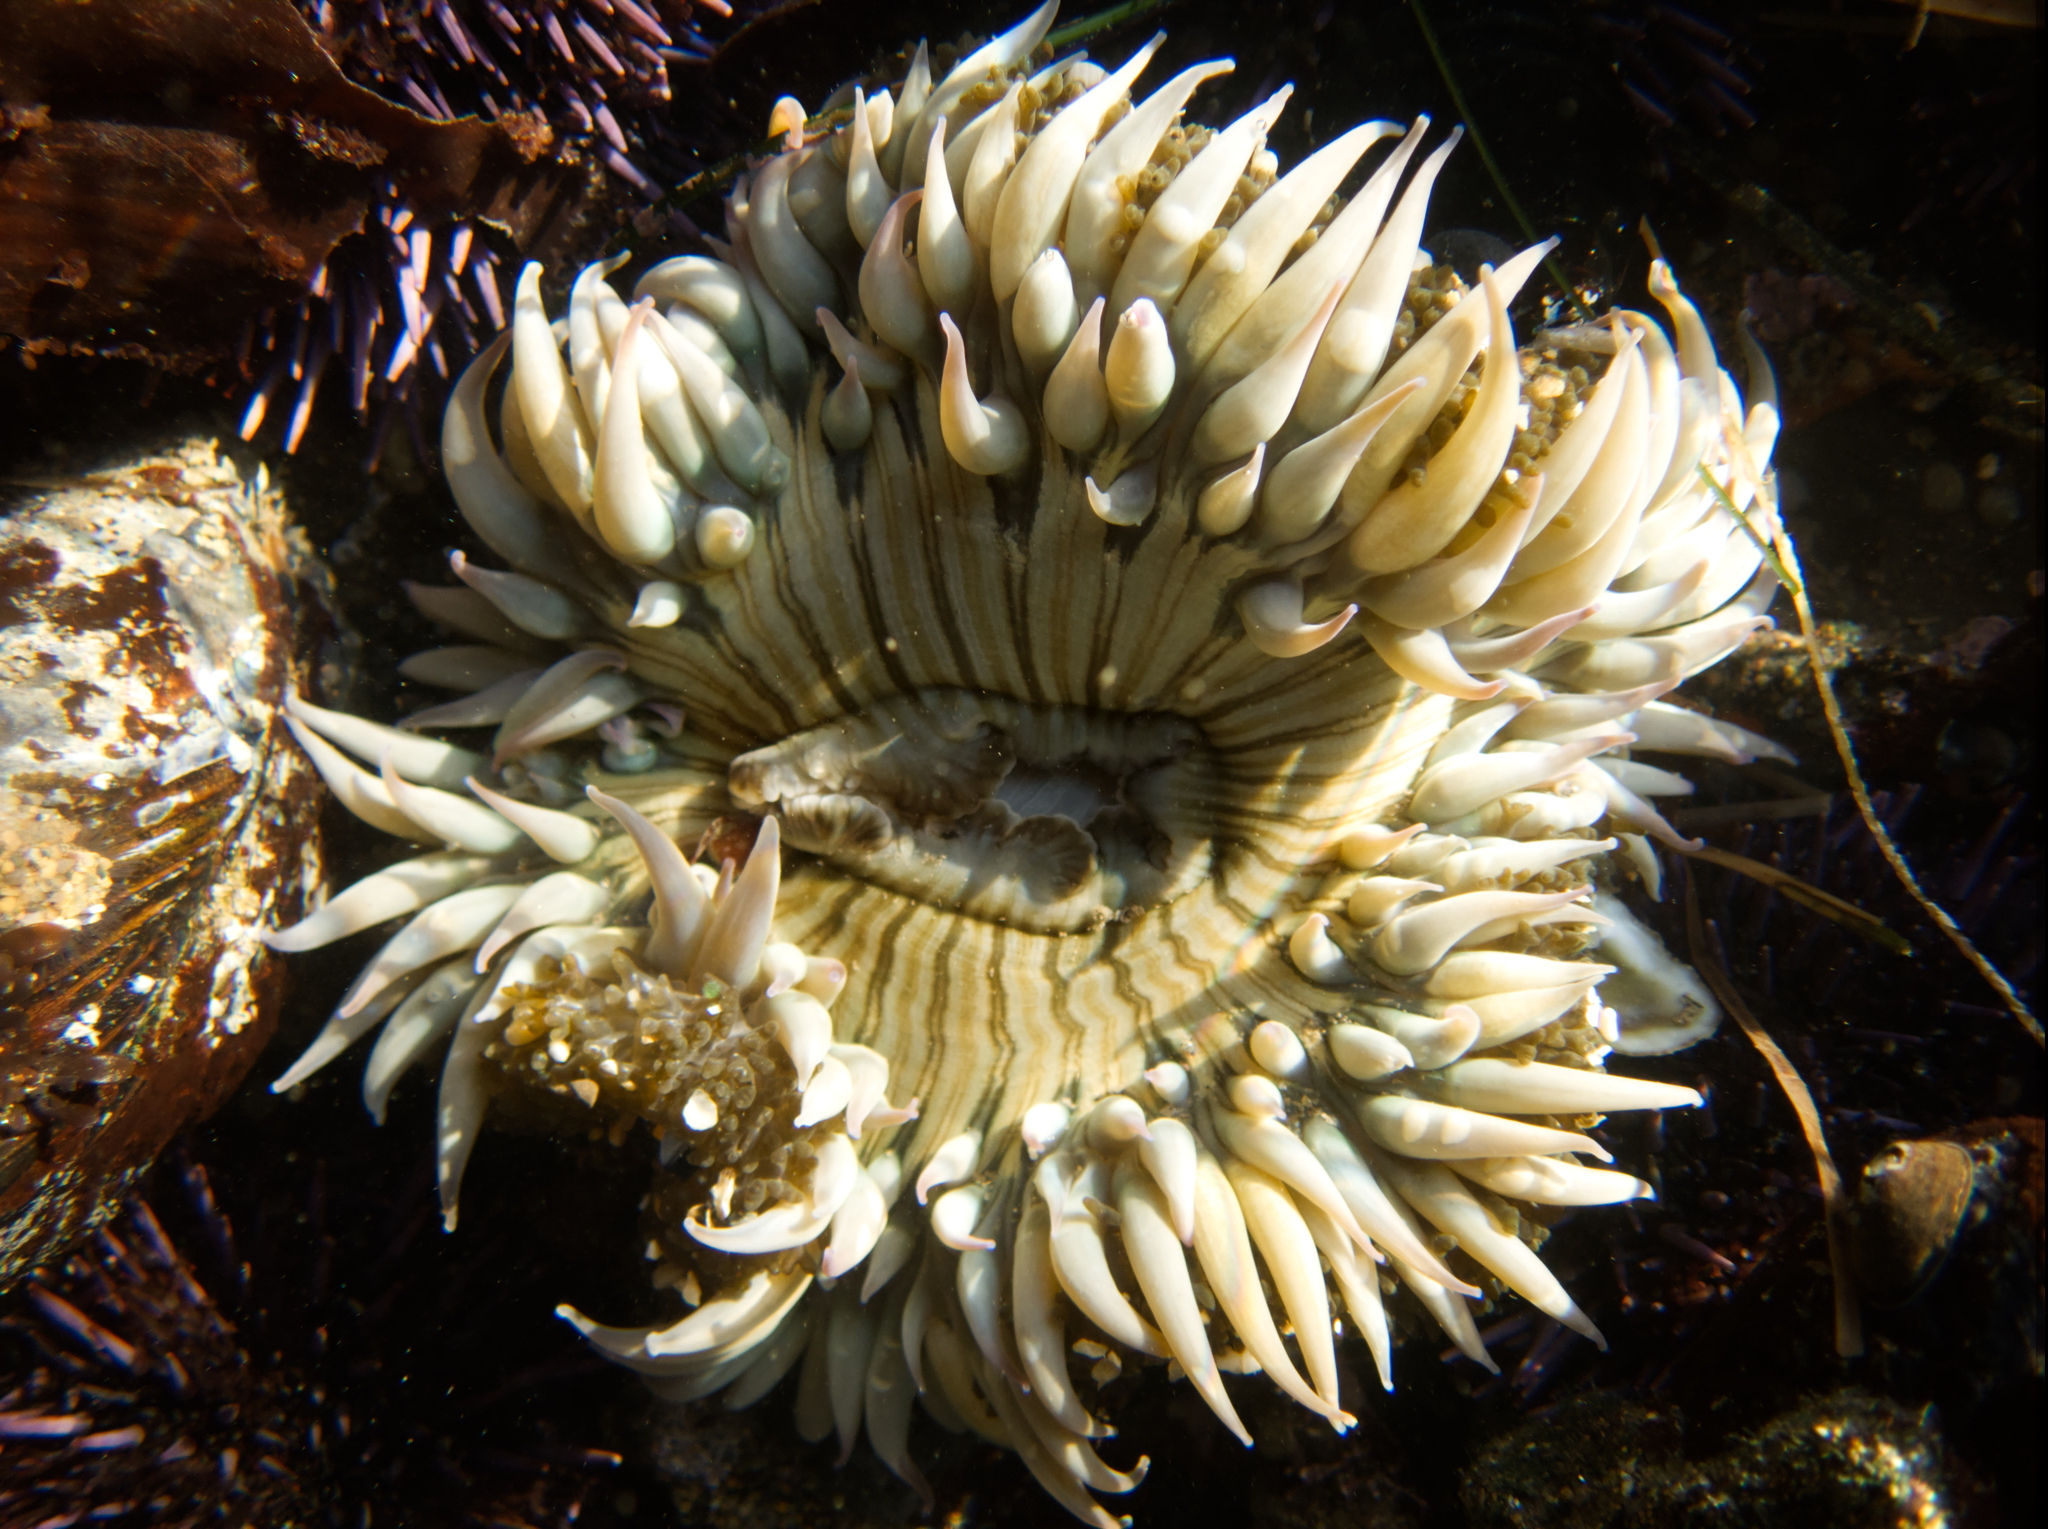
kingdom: Animalia
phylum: Cnidaria
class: Anthozoa
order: Actiniaria
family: Actiniidae
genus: Anthopleura
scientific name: Anthopleura sola
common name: Sun anemone
